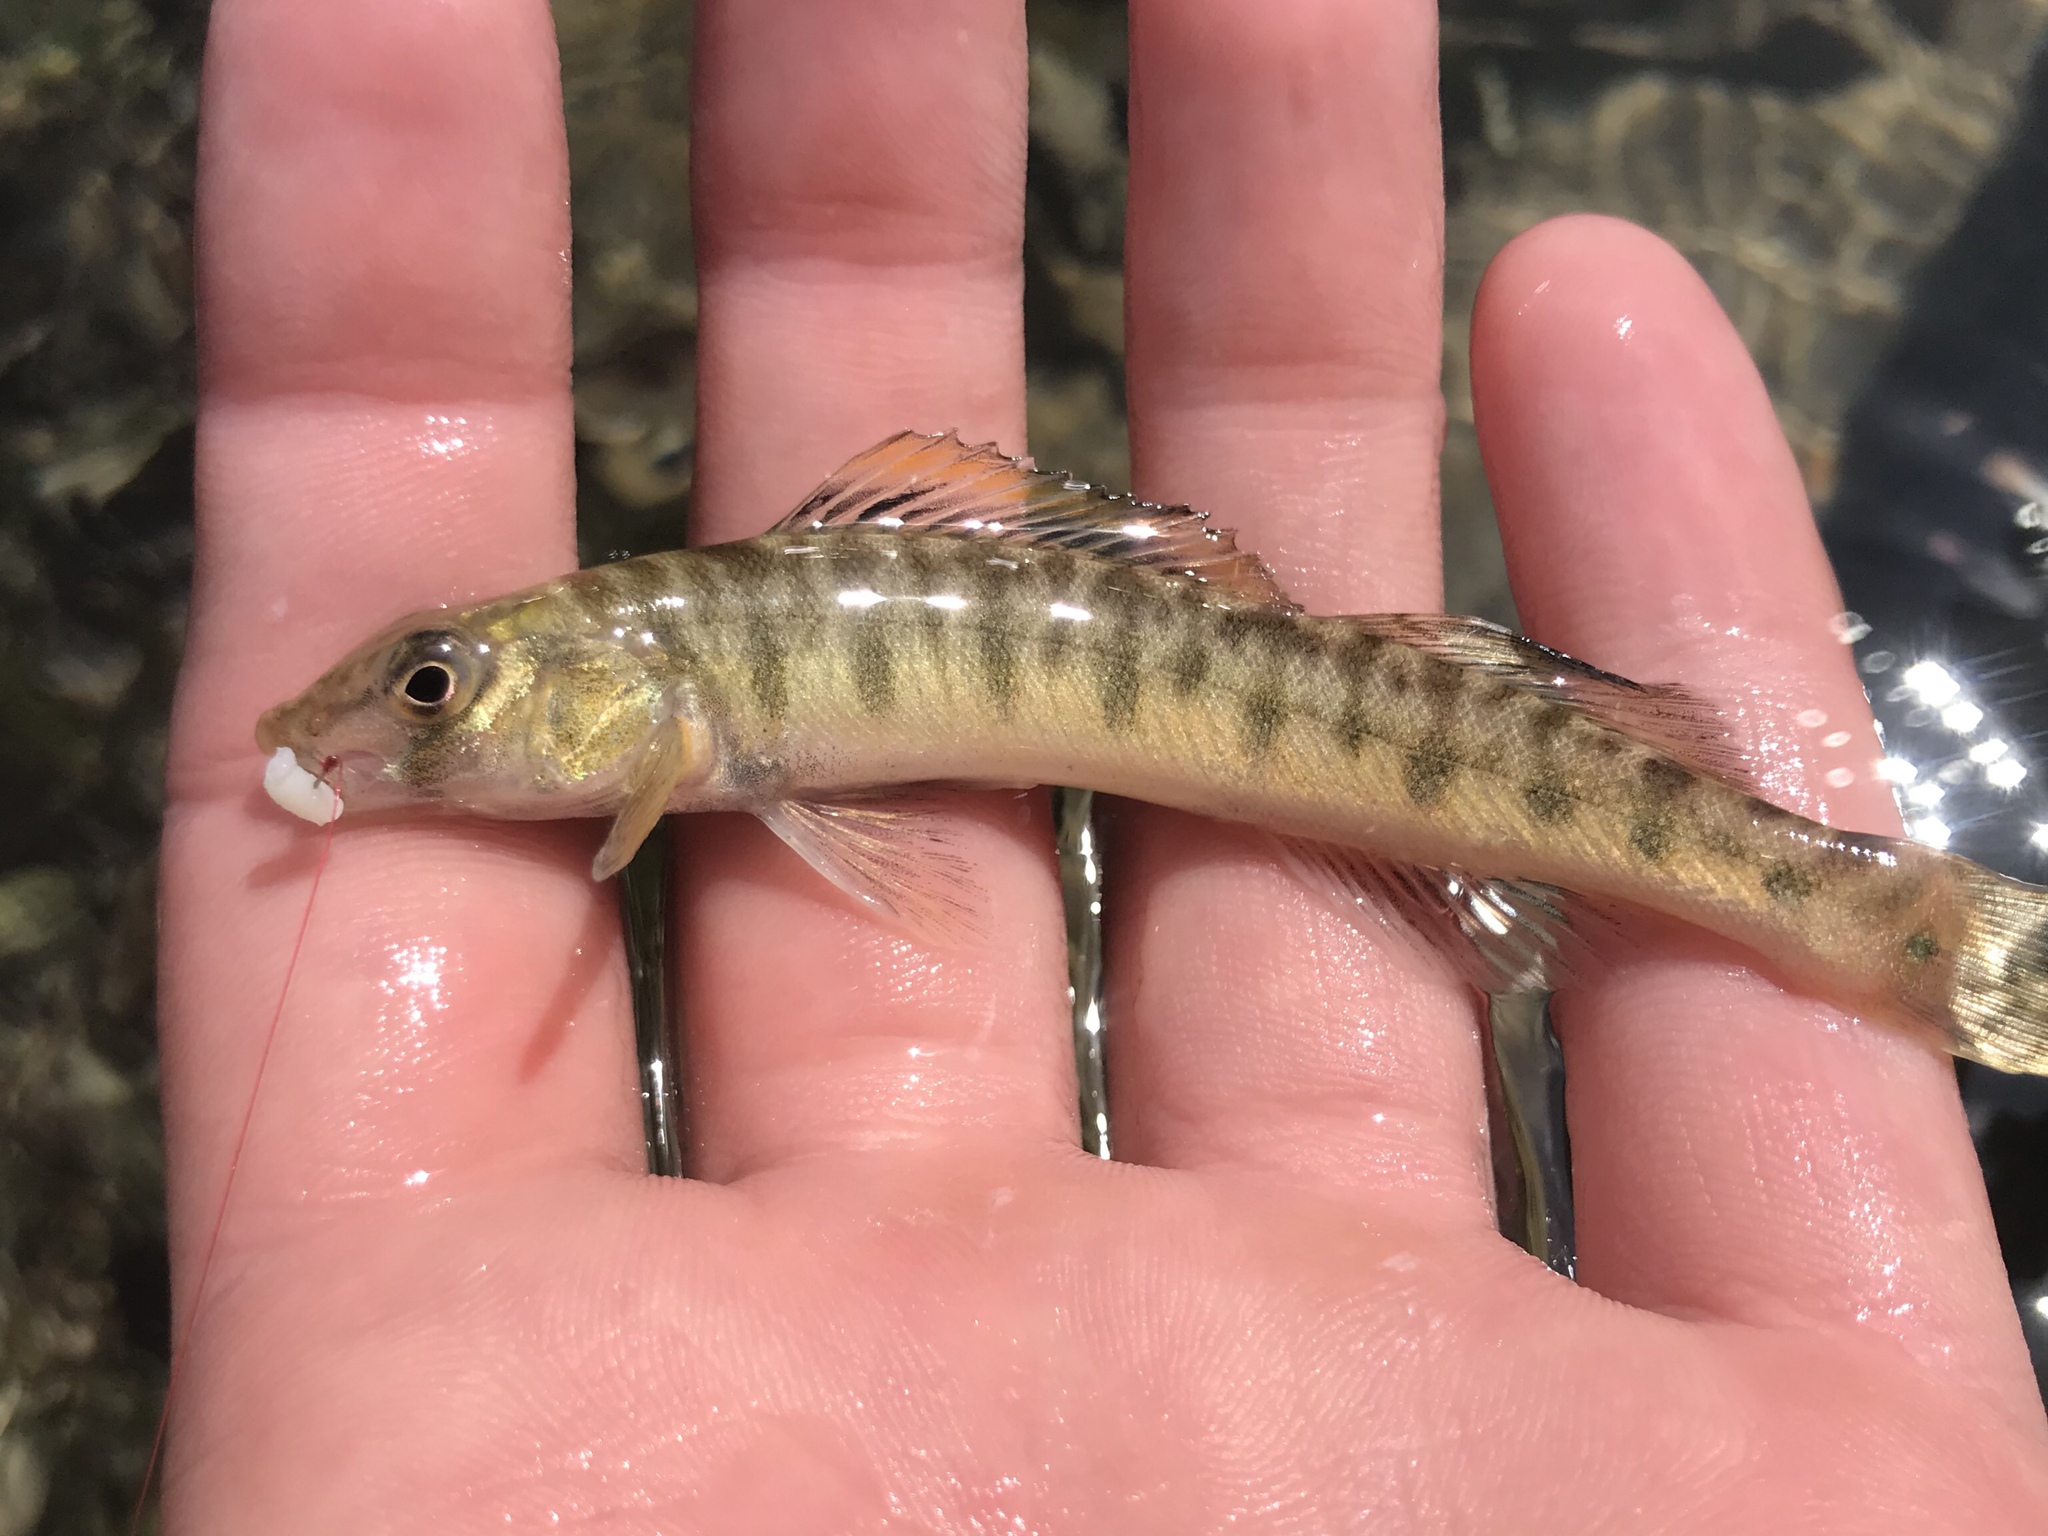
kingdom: Animalia
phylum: Chordata
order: Perciformes
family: Percidae
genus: Percina
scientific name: Percina carbonaria
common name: Texas logperch
